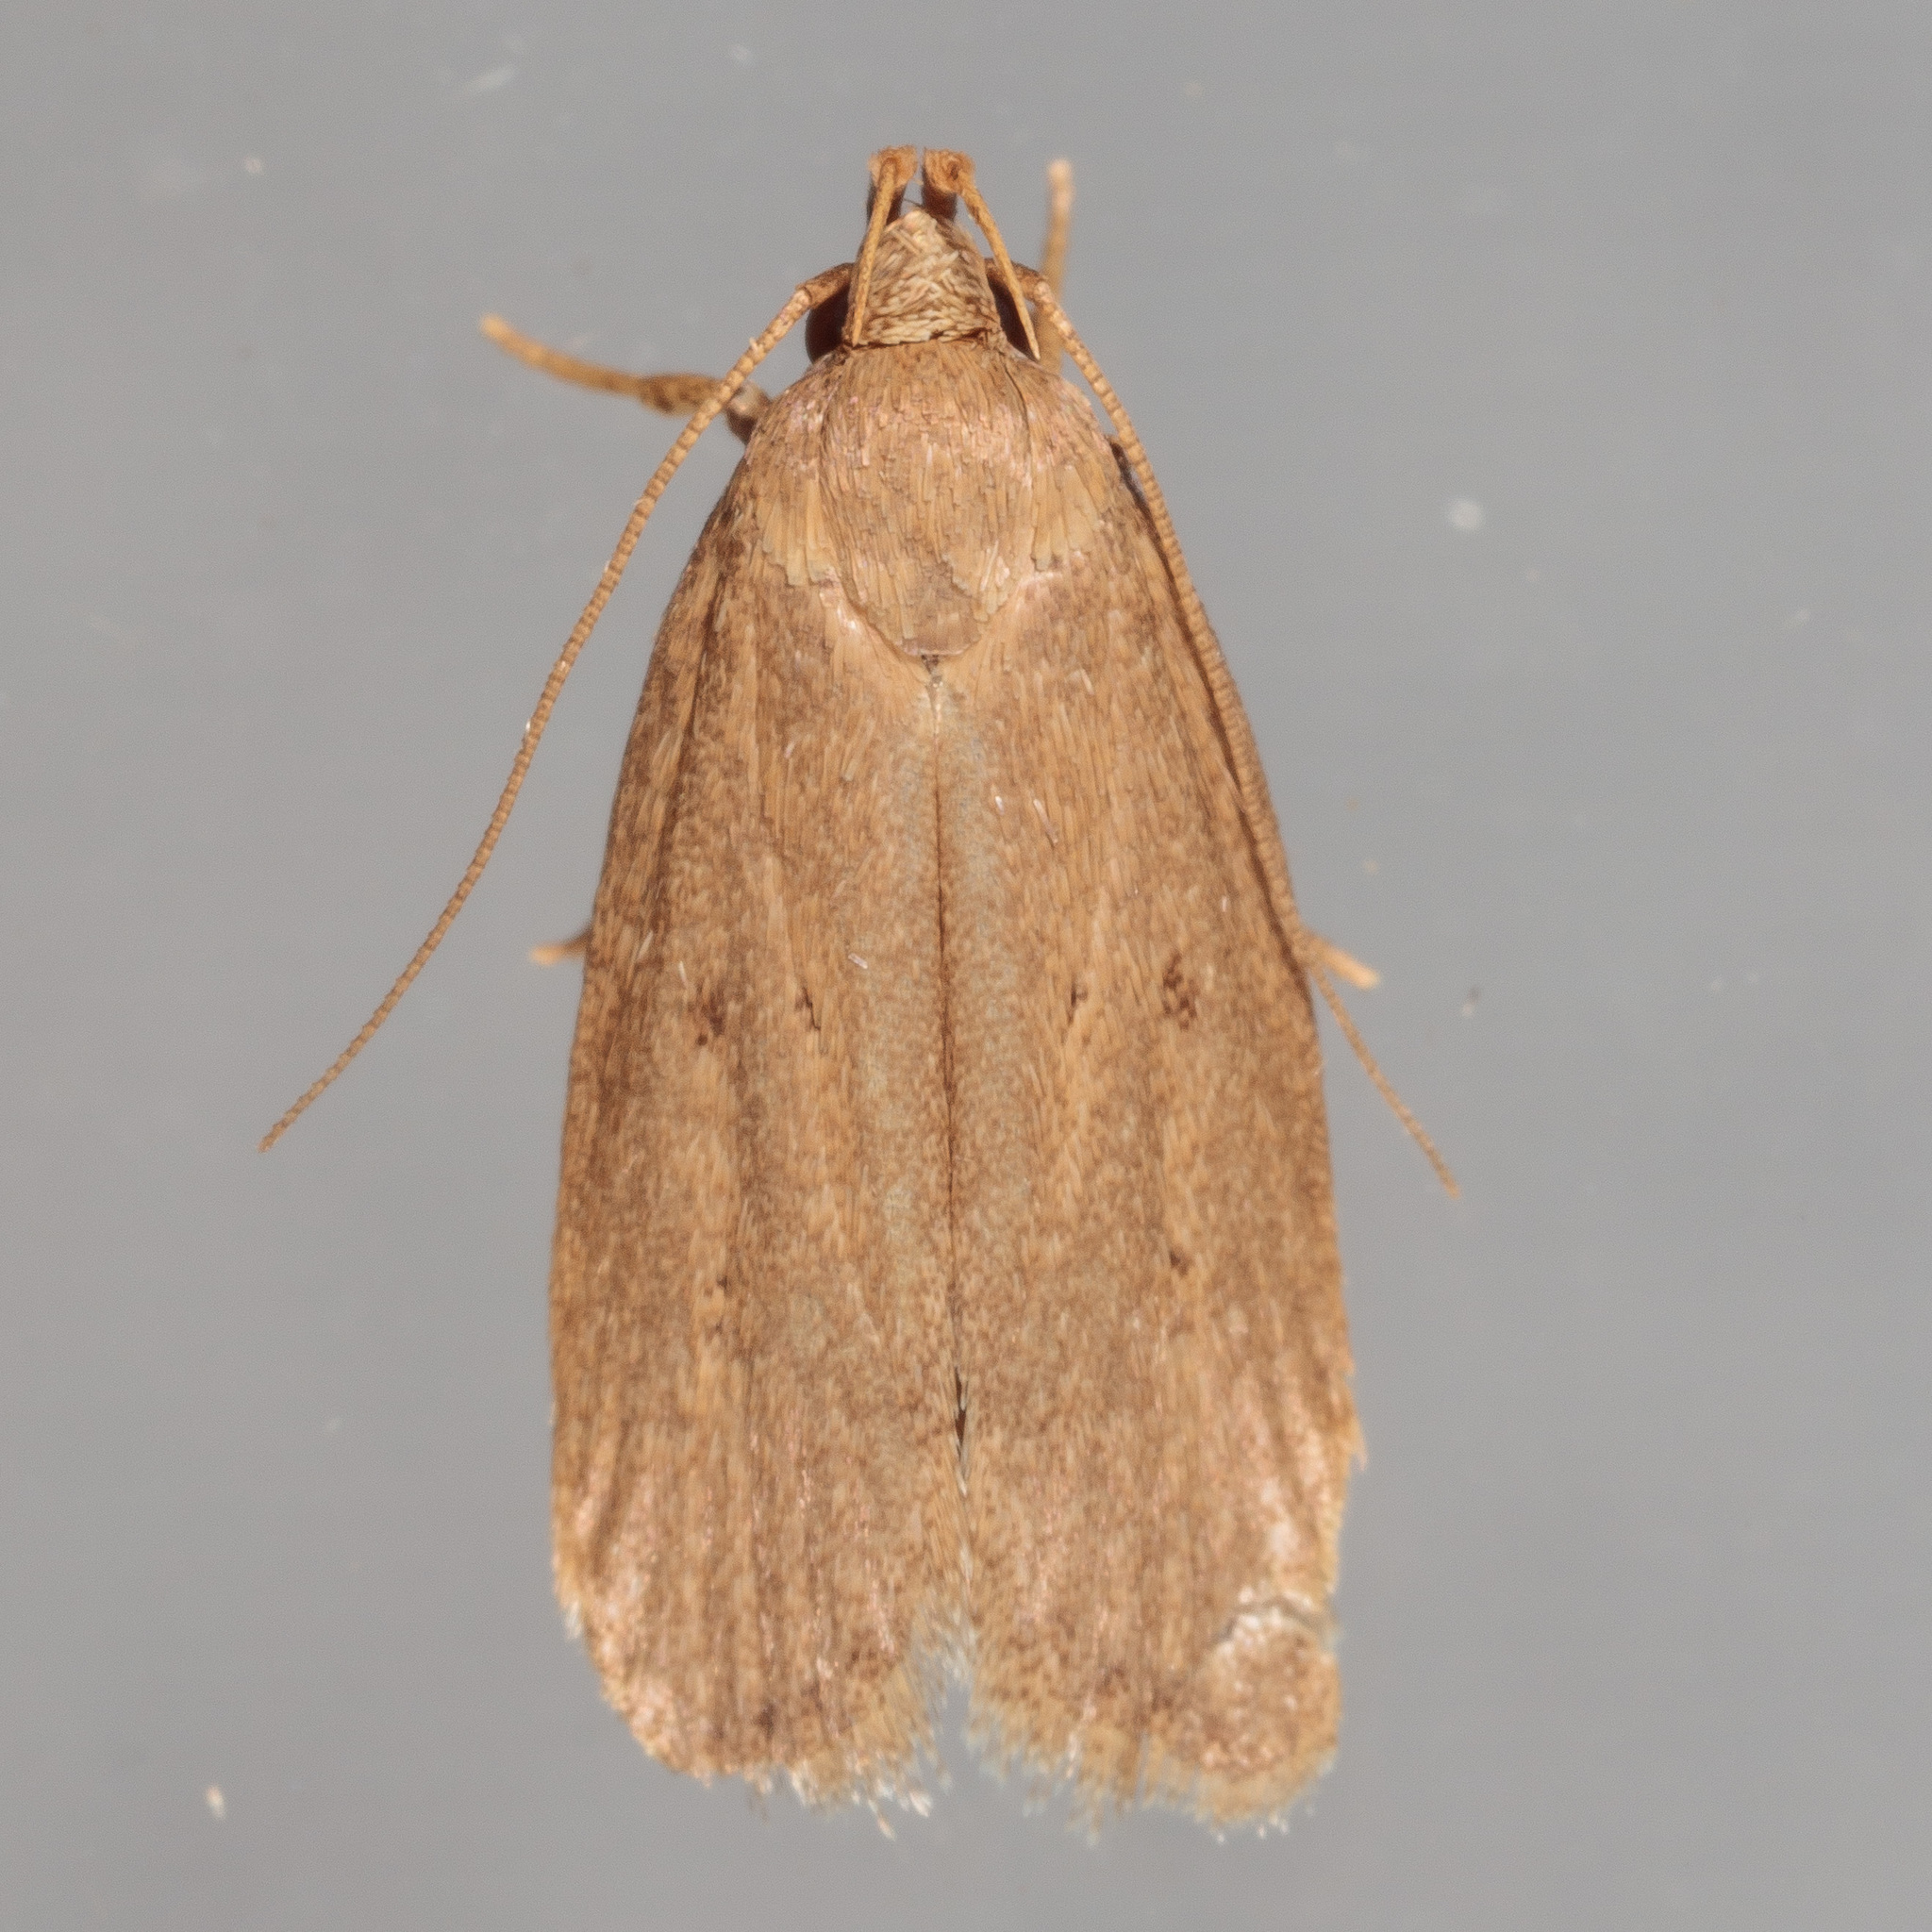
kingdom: Animalia
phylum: Arthropoda
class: Insecta
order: Lepidoptera
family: Autostichidae
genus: Autosticha
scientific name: Autosticha kyotensis
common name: Kyoto moth
